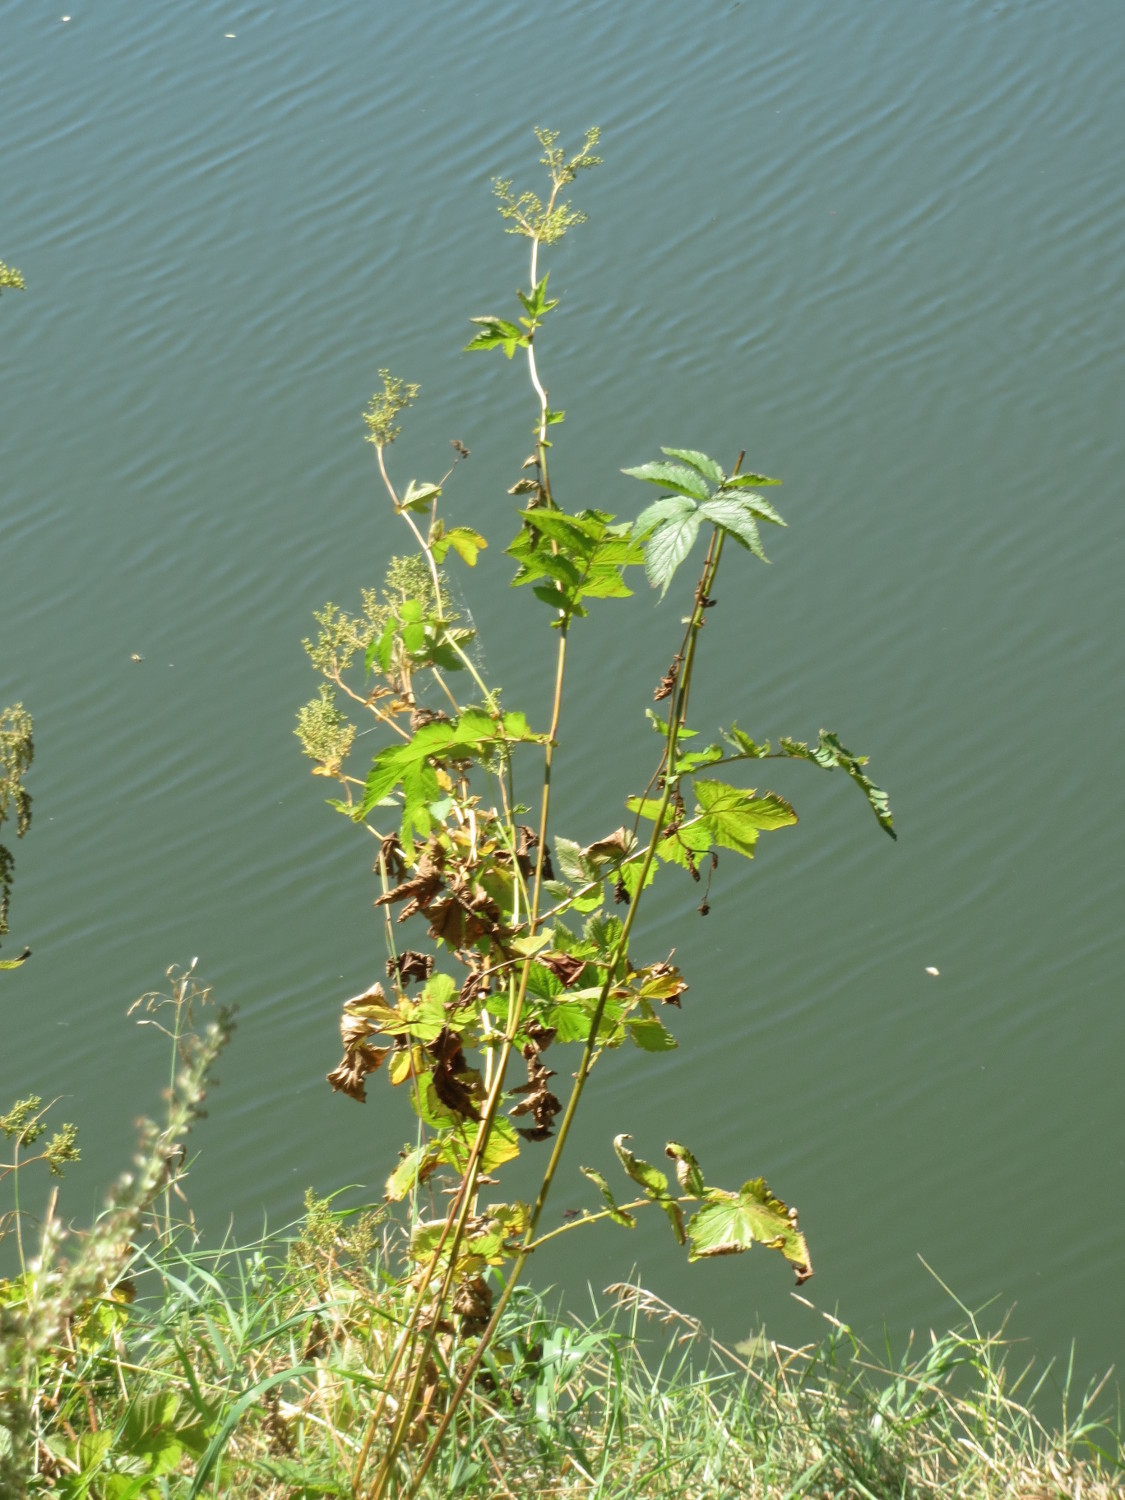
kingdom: Plantae
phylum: Tracheophyta
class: Magnoliopsida
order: Rosales
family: Rosaceae
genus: Filipendula
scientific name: Filipendula ulmaria
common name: Meadowsweet
